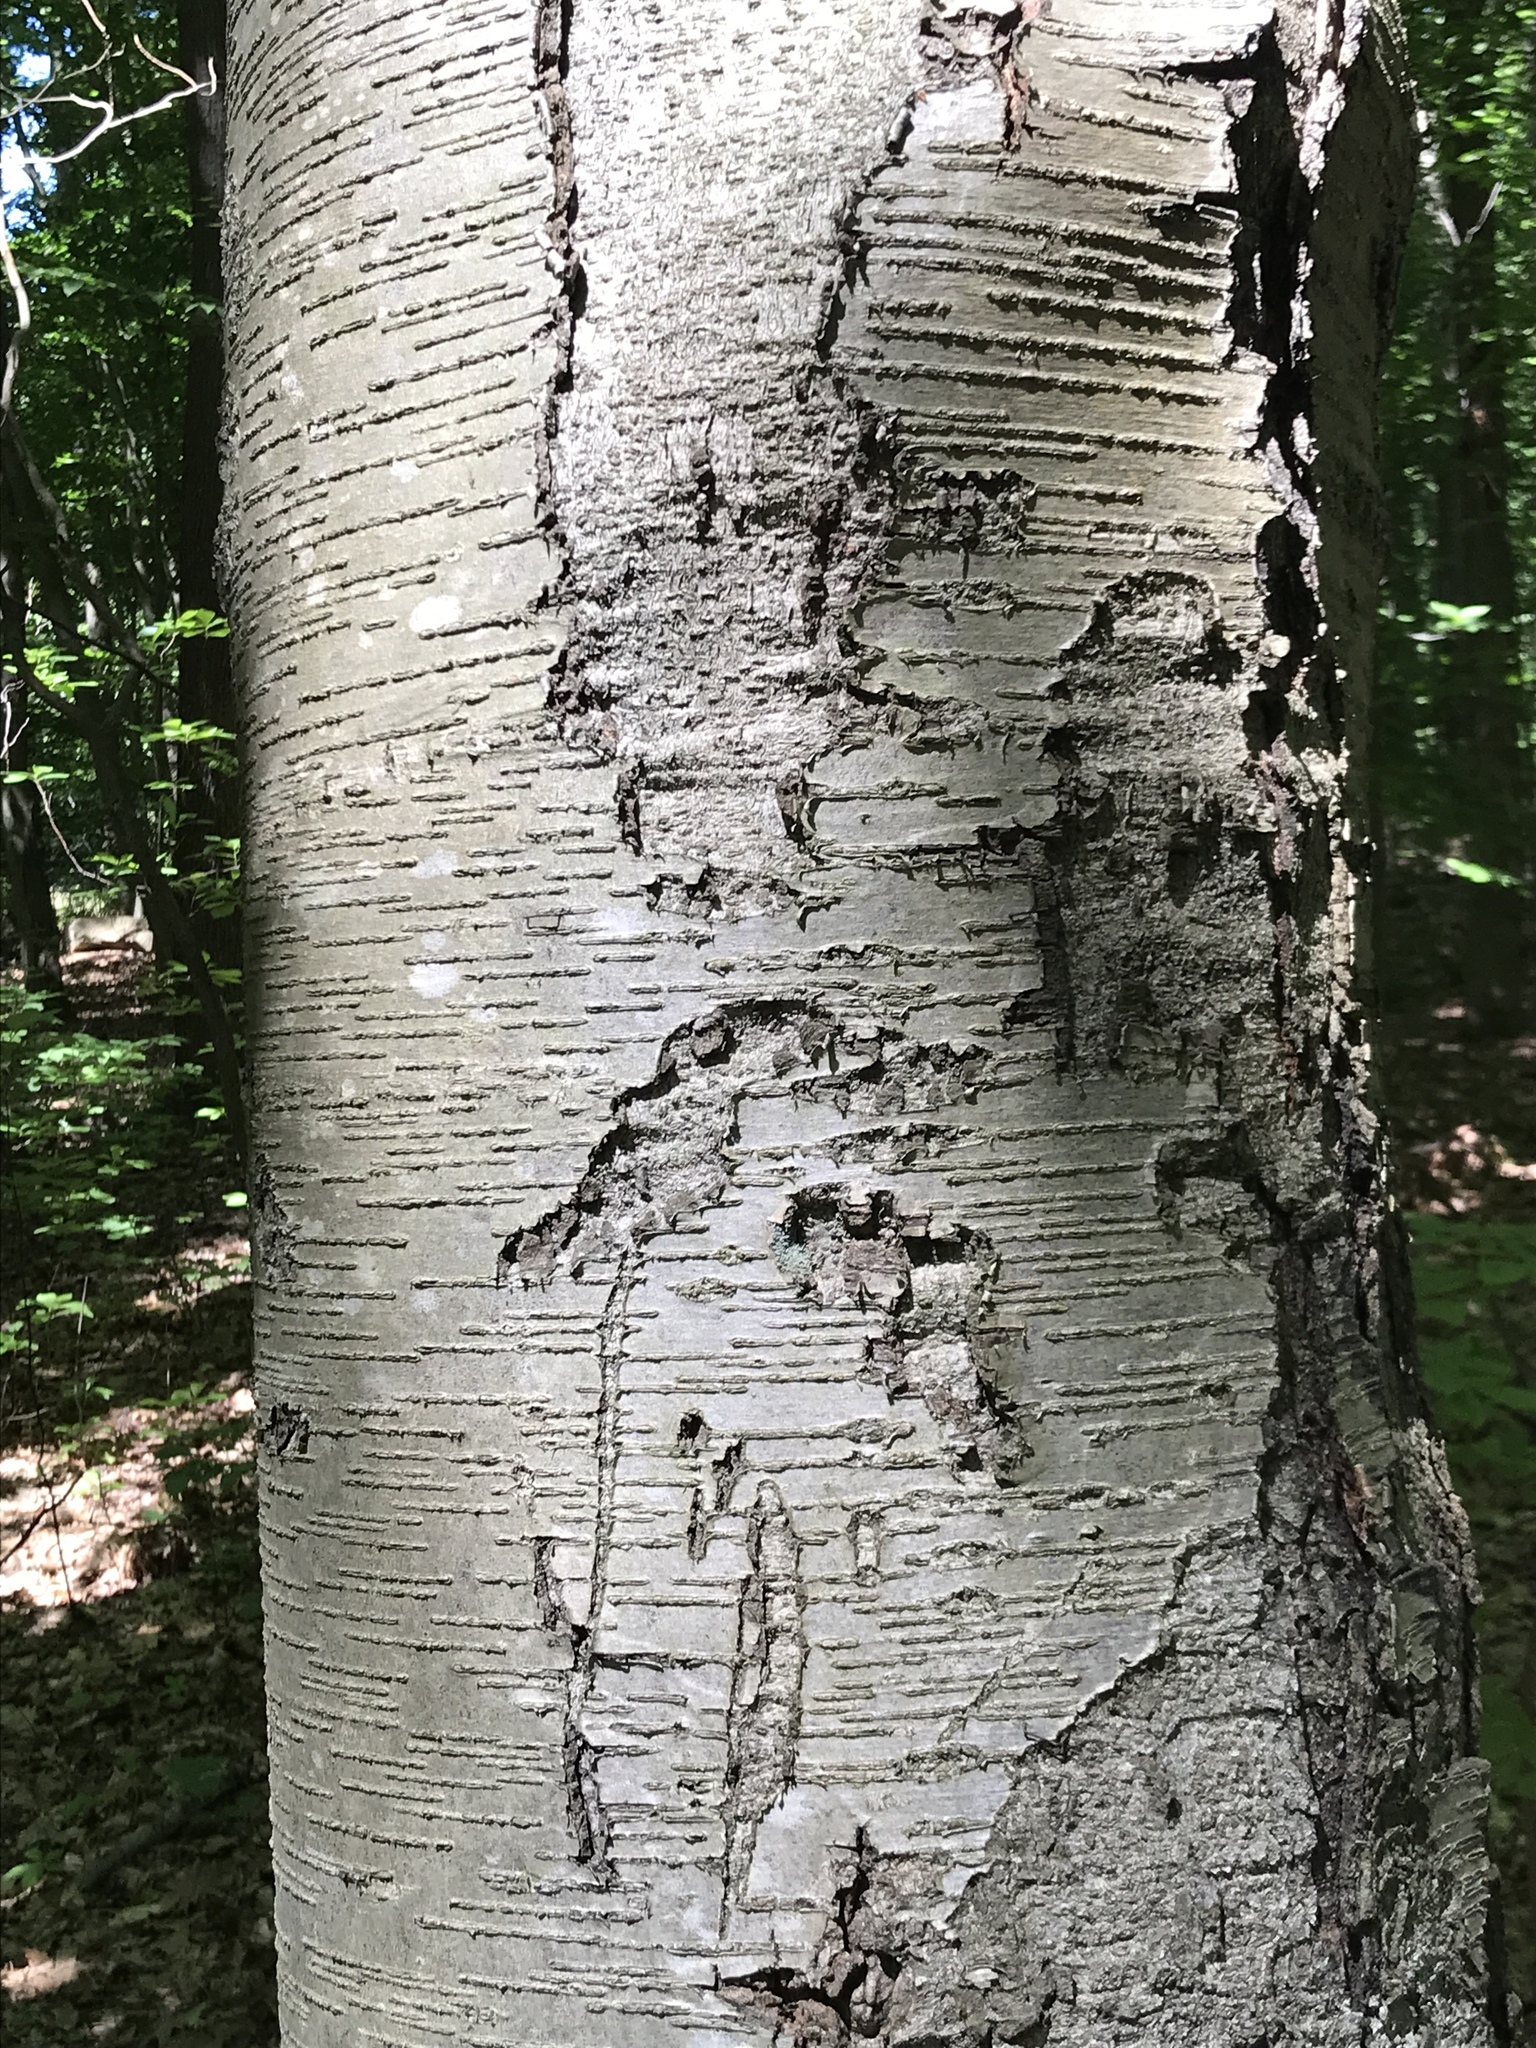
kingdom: Plantae
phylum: Tracheophyta
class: Magnoliopsida
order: Fagales
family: Betulaceae
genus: Betula
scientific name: Betula lenta
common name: Black birch
